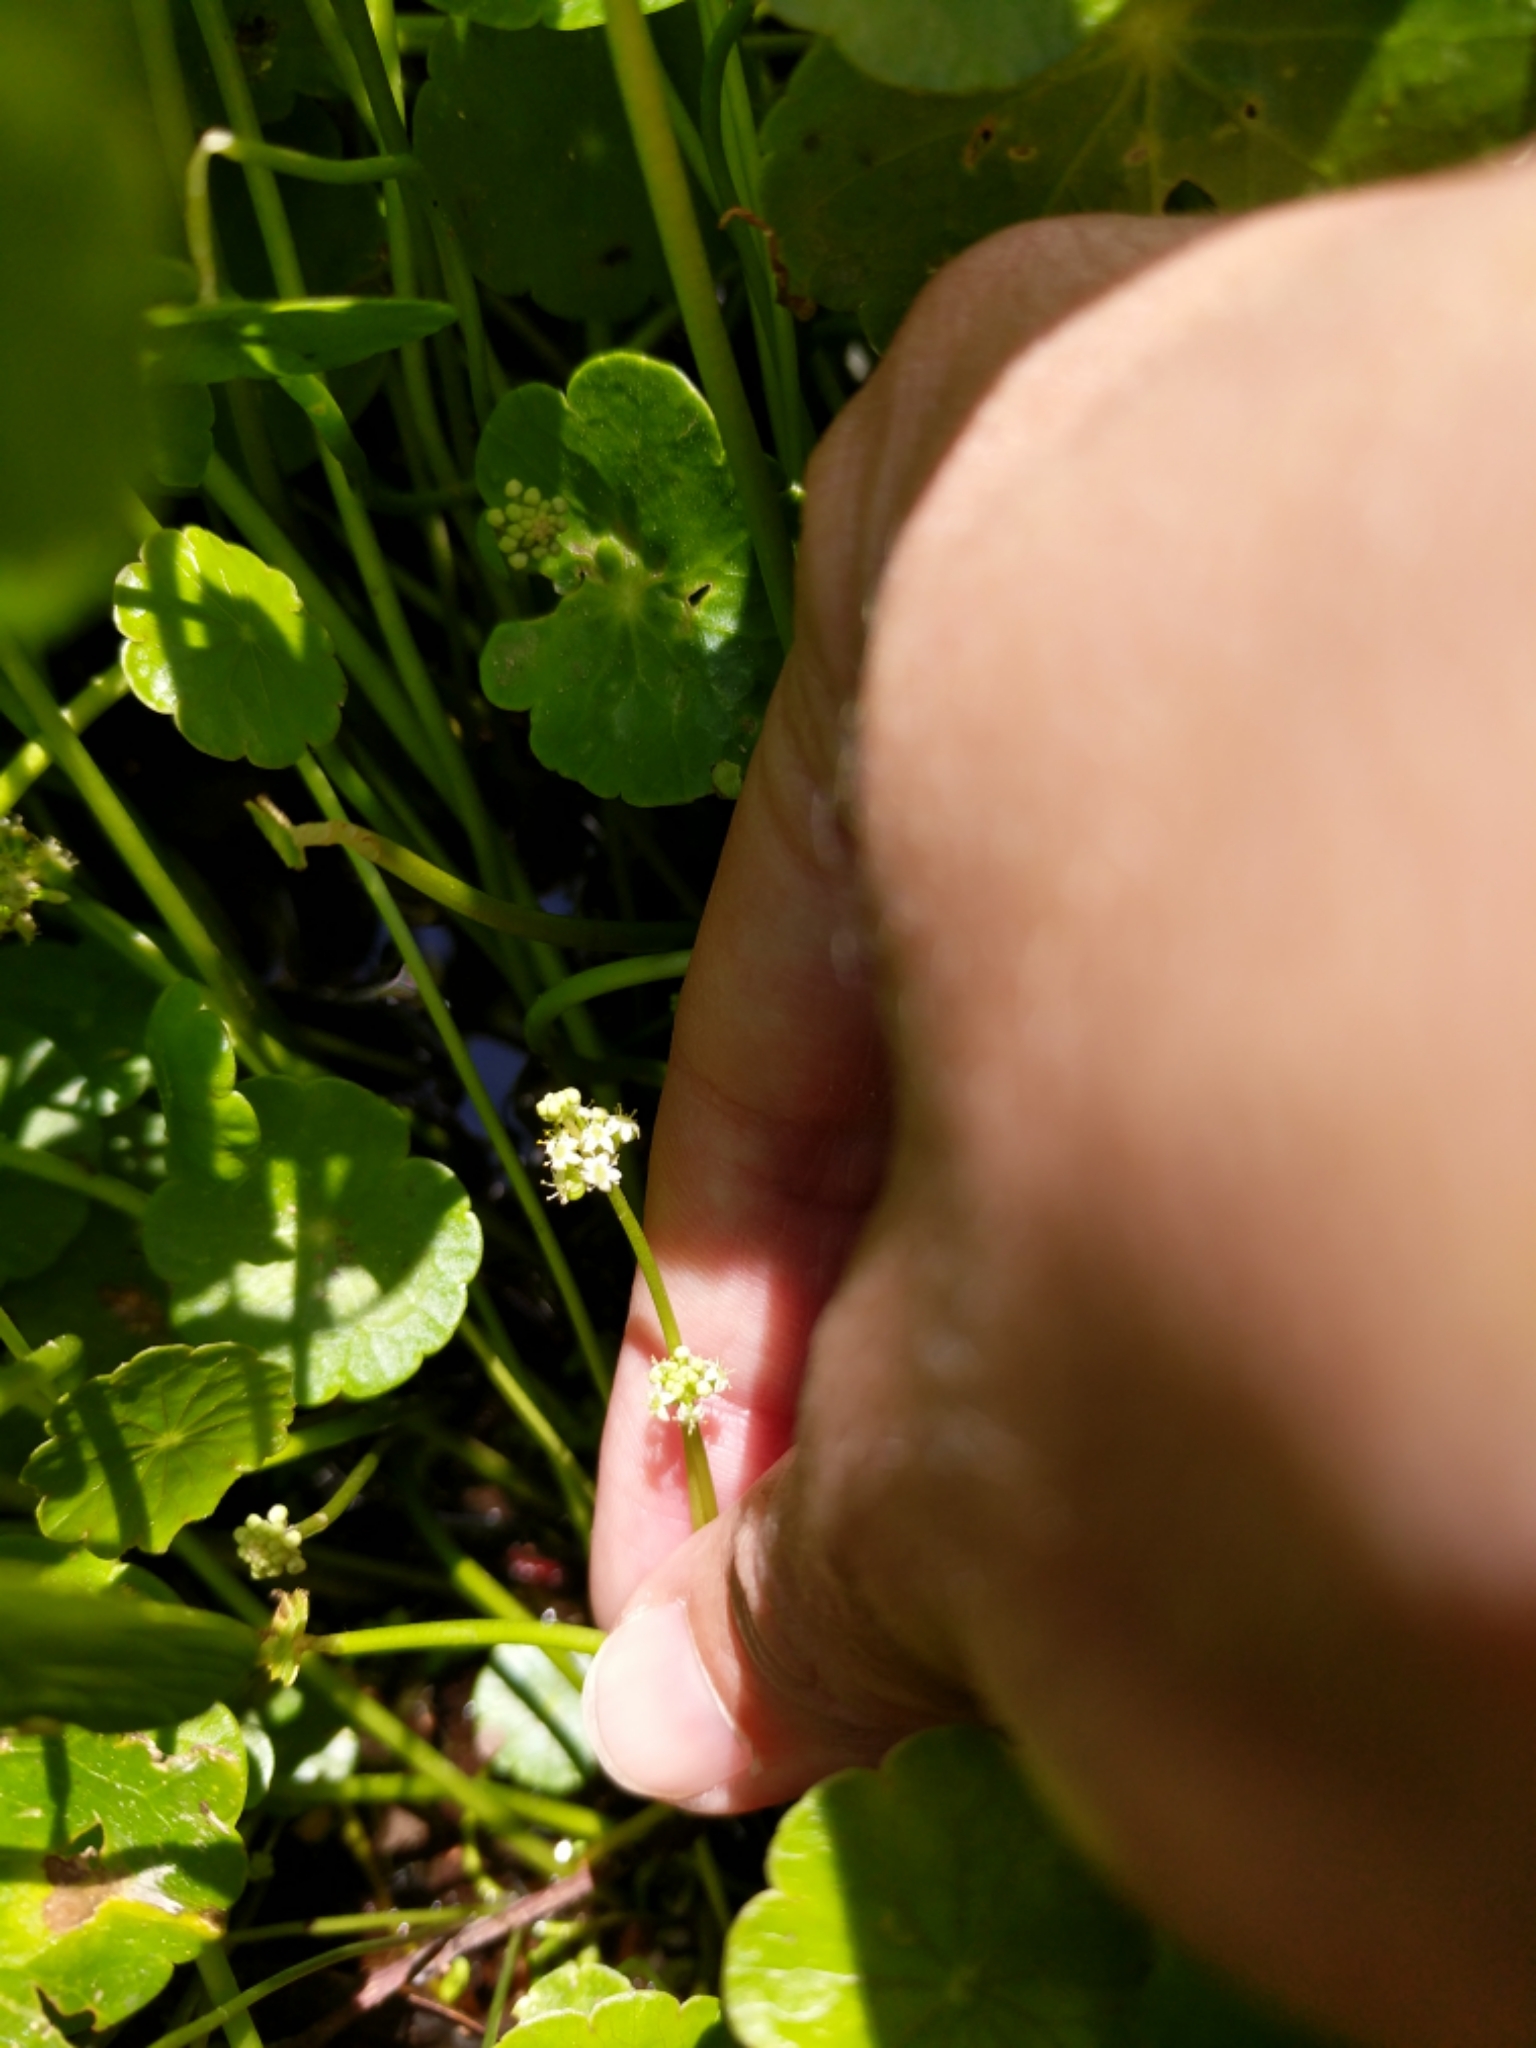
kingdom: Plantae
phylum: Tracheophyta
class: Magnoliopsida
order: Apiales
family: Araliaceae
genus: Hydrocotyle
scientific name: Hydrocotyle bonariensis
